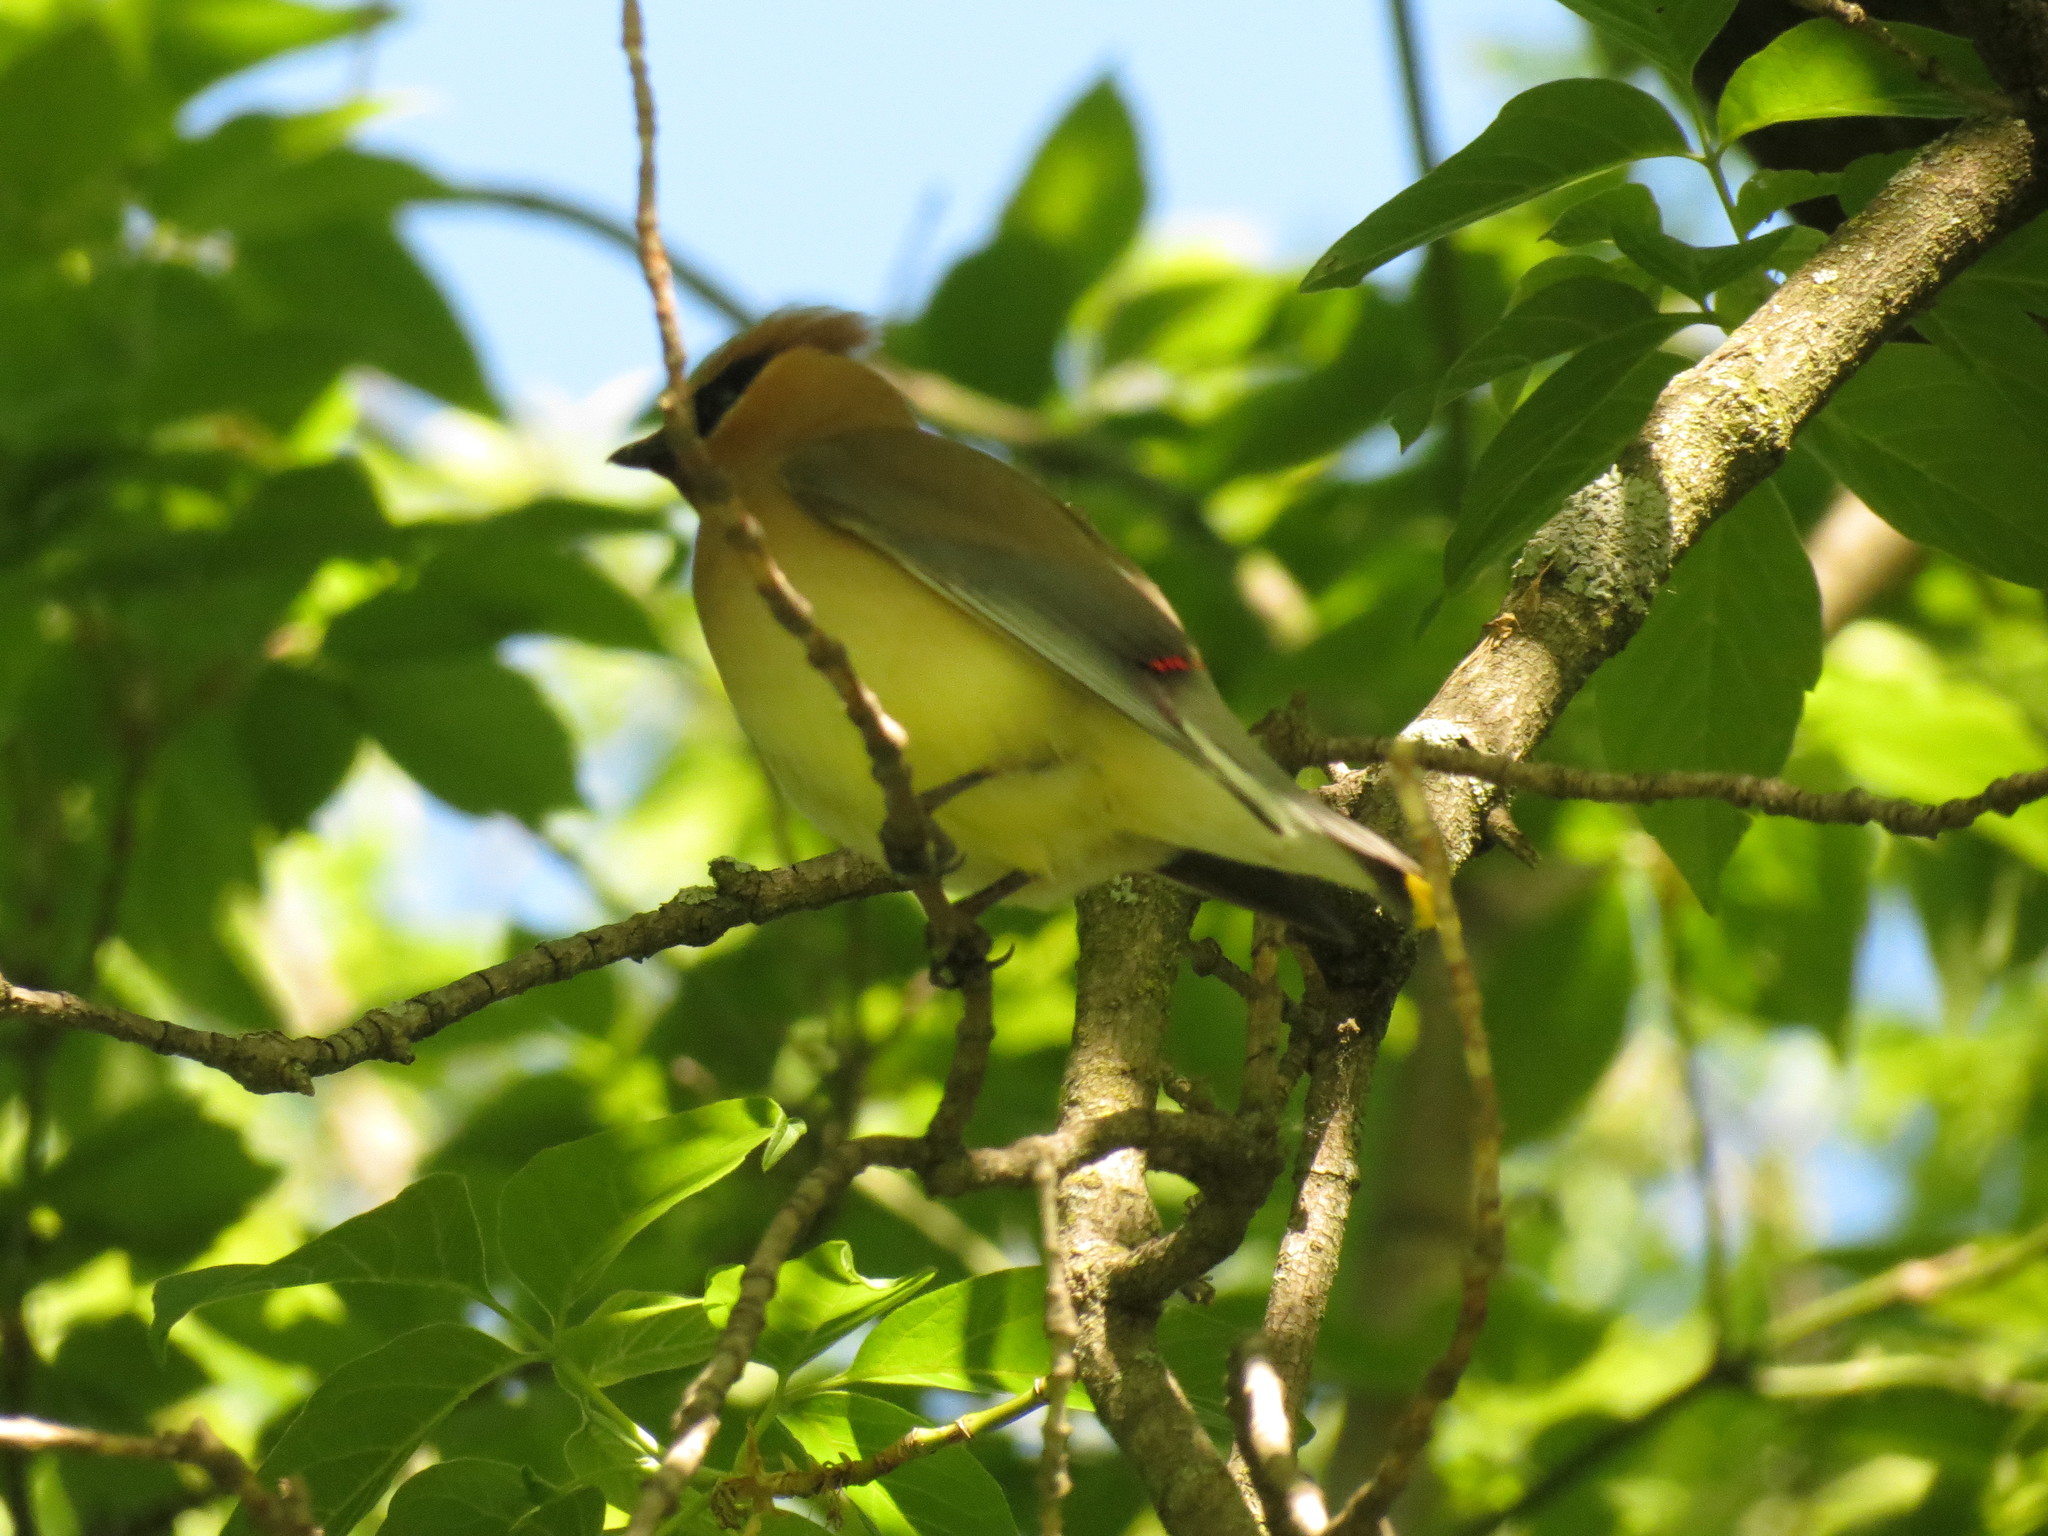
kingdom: Animalia
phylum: Chordata
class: Aves
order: Passeriformes
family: Bombycillidae
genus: Bombycilla
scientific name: Bombycilla cedrorum
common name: Cedar waxwing
